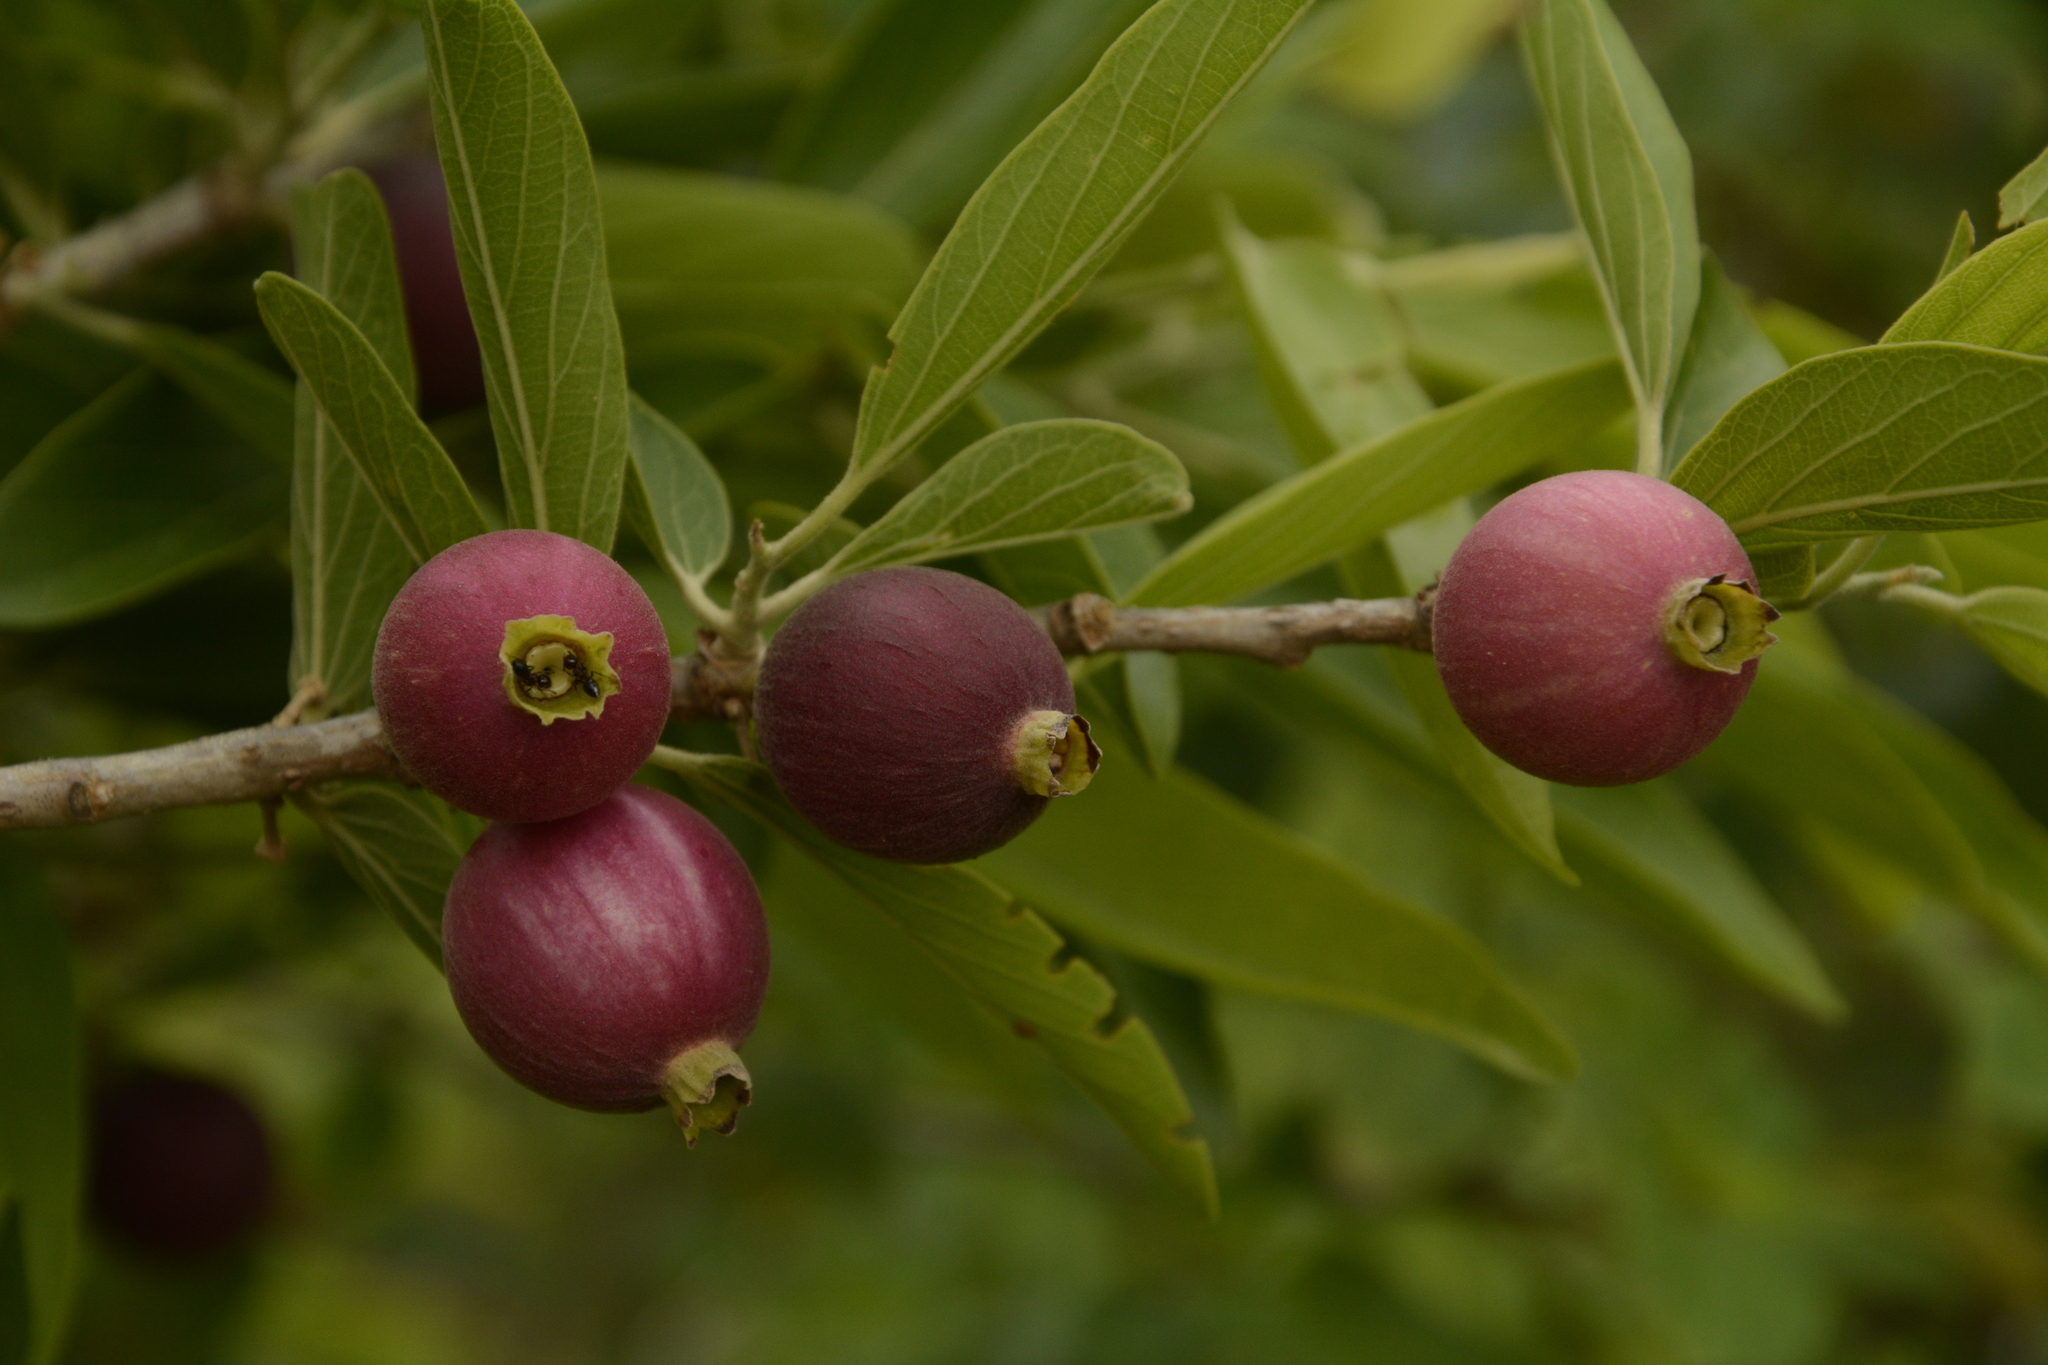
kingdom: Plantae
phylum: Tracheophyta
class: Magnoliopsida
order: Cornales
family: Cornaceae
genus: Alangium
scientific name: Alangium salviifolium
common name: Sage-leaf alangium
